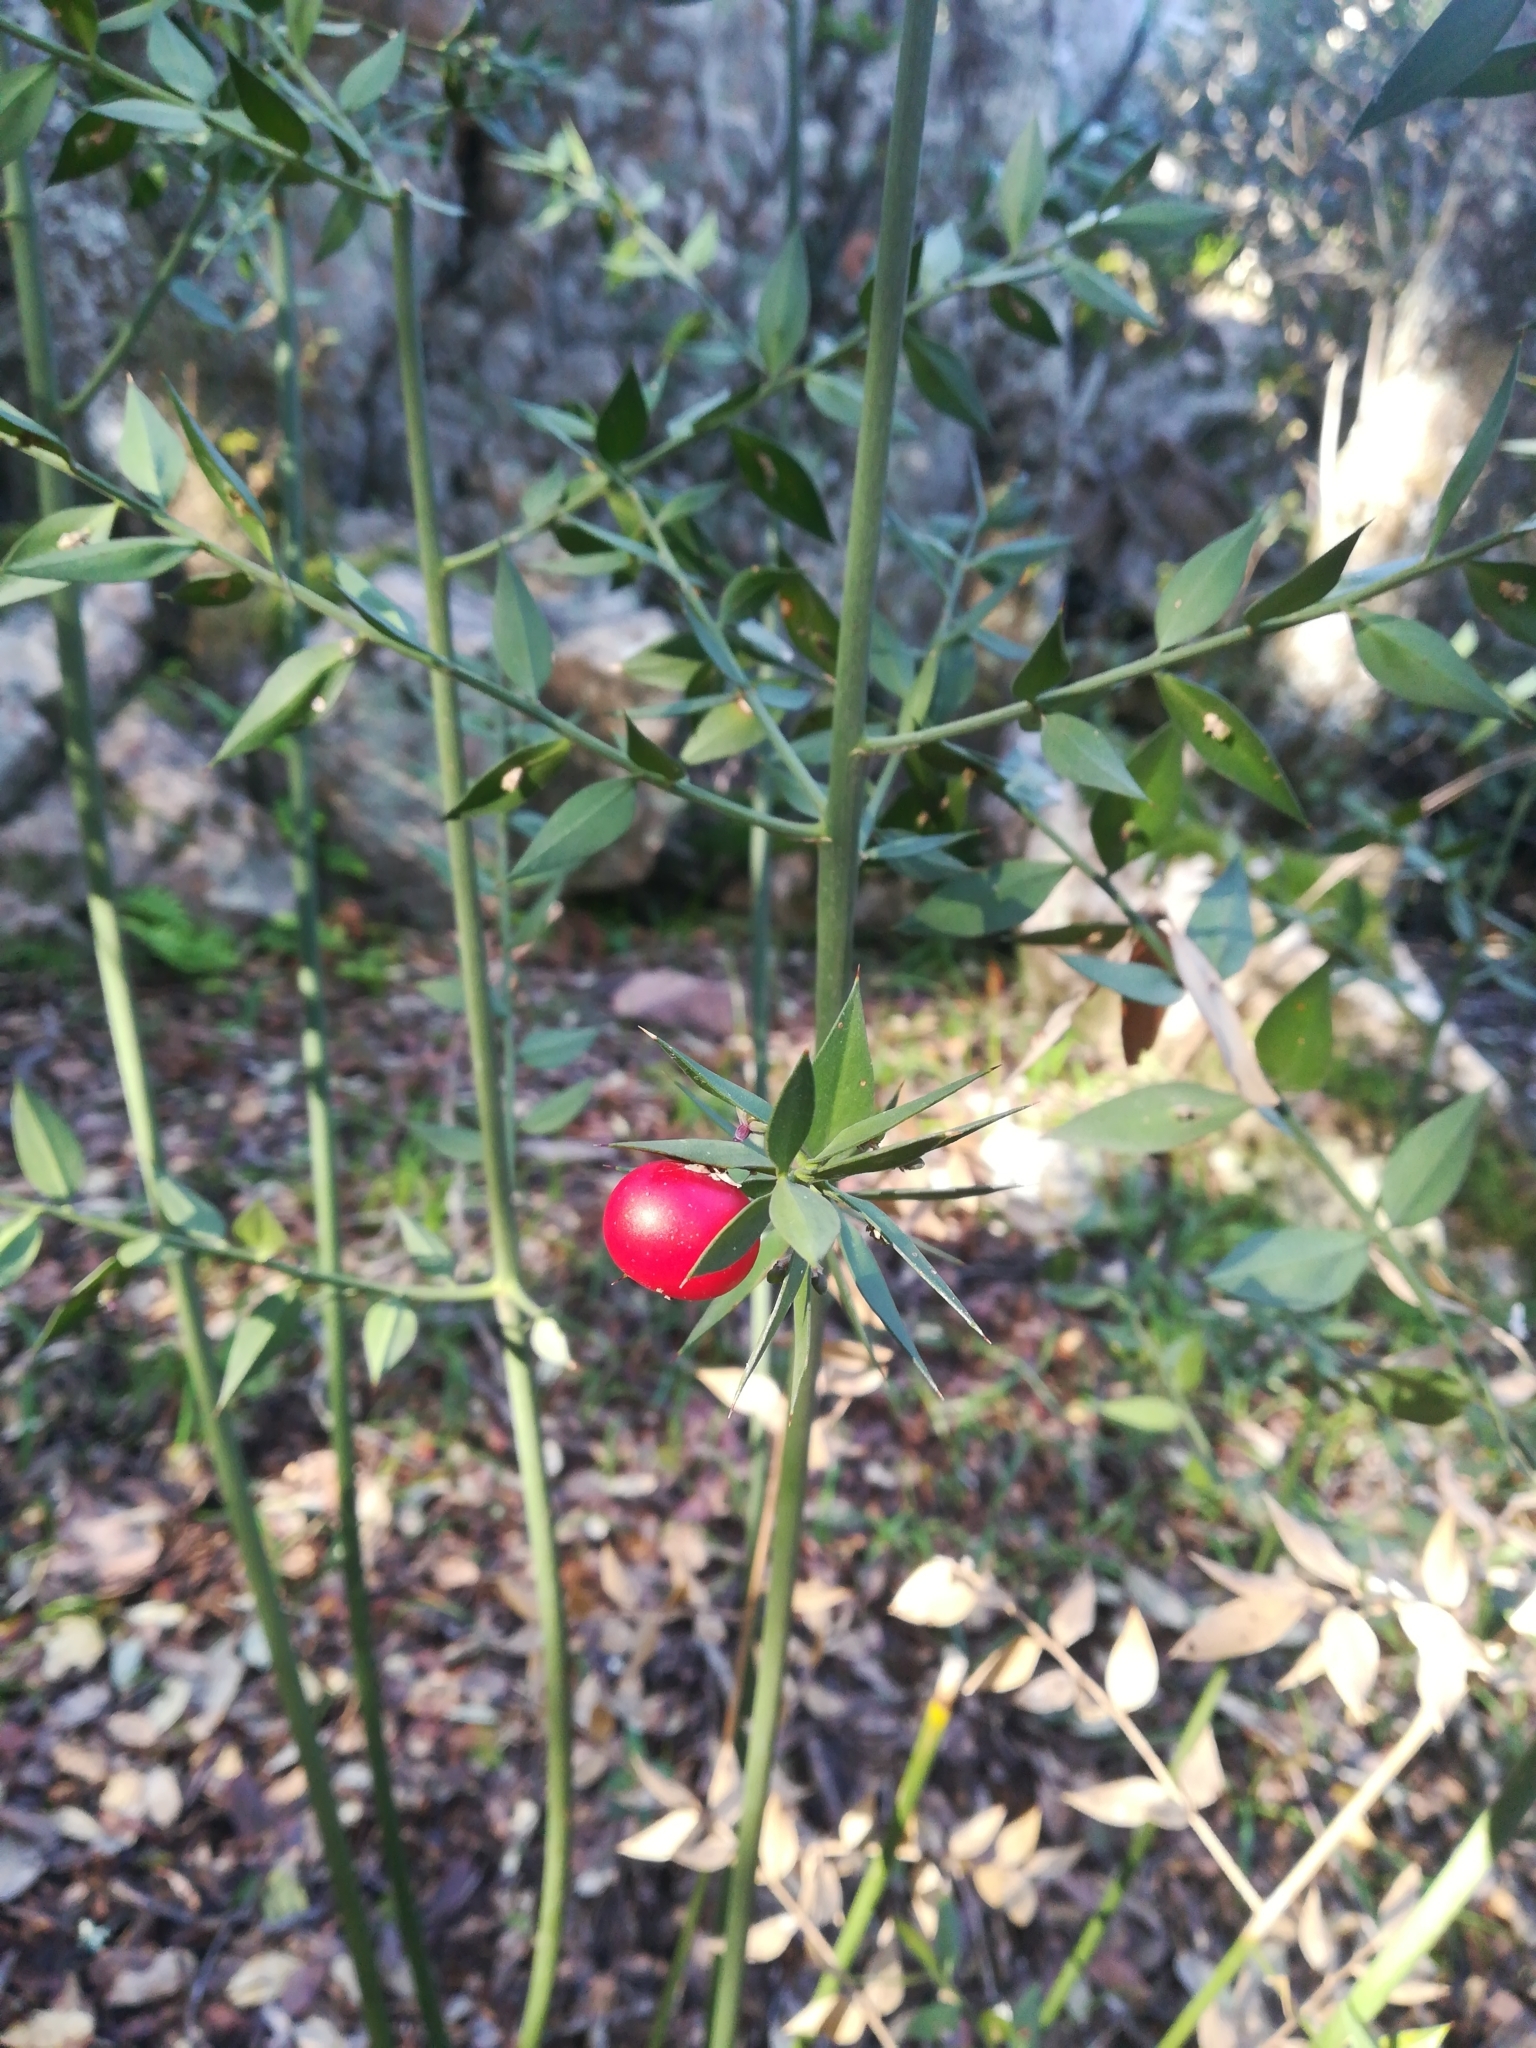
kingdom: Plantae
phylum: Tracheophyta
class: Liliopsida
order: Asparagales
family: Asparagaceae
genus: Ruscus
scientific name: Ruscus aculeatus
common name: Butcher's-broom
